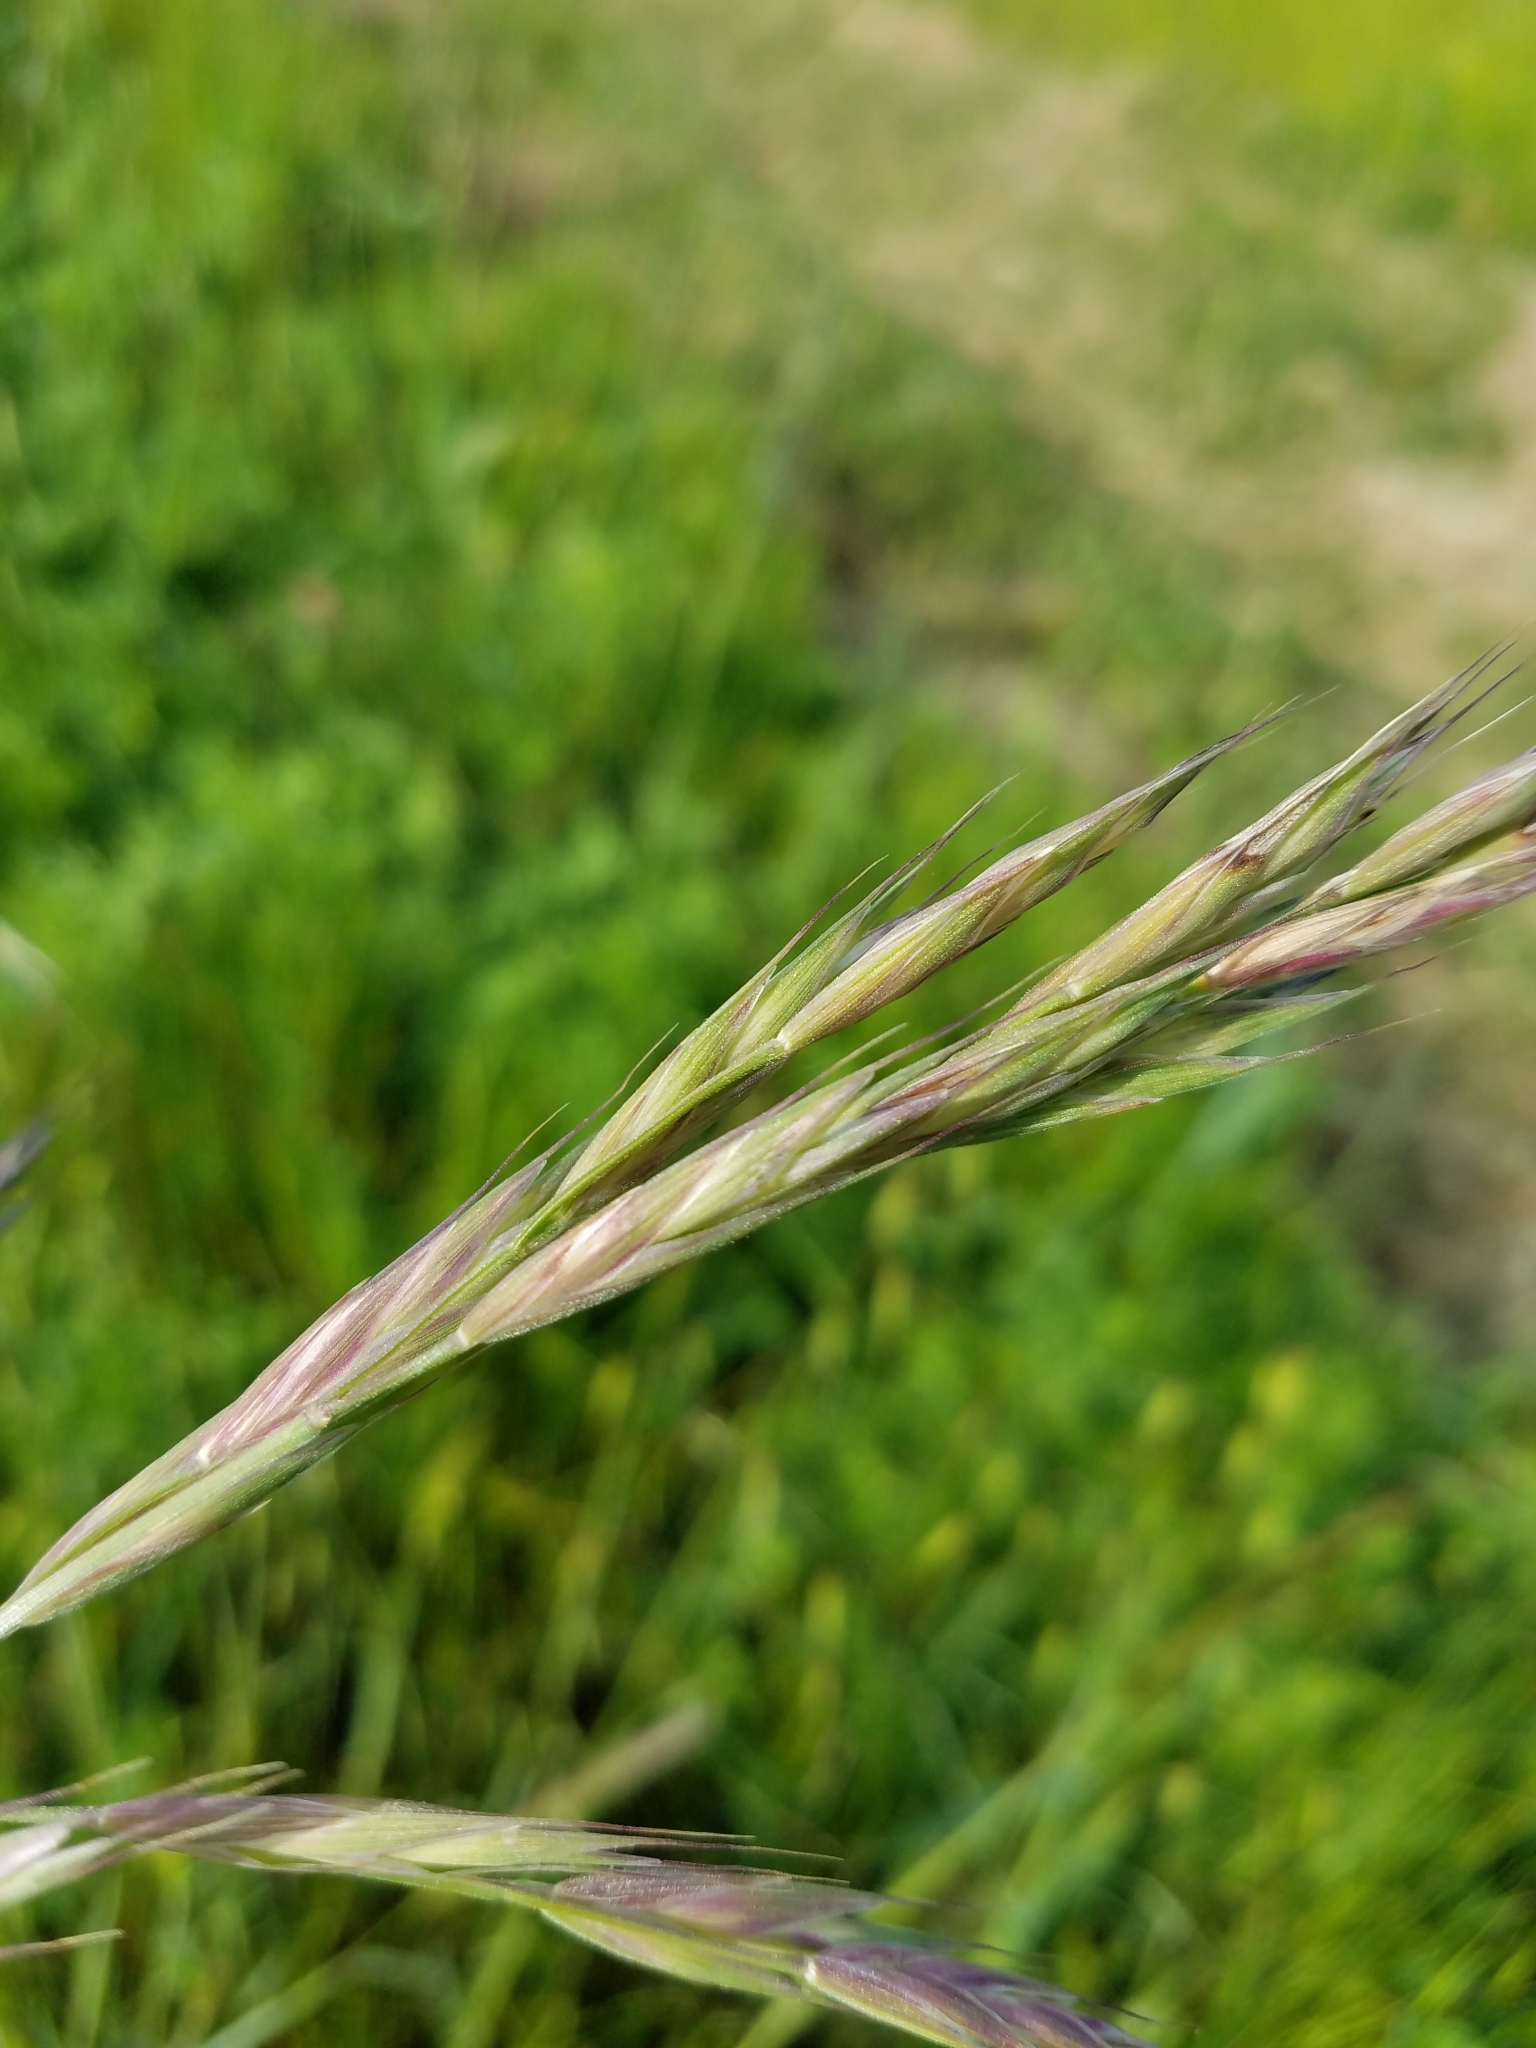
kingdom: Plantae
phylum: Tracheophyta
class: Liliopsida
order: Poales
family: Poaceae
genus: Bromus
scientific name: Bromus carinatus
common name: Mountain brome
